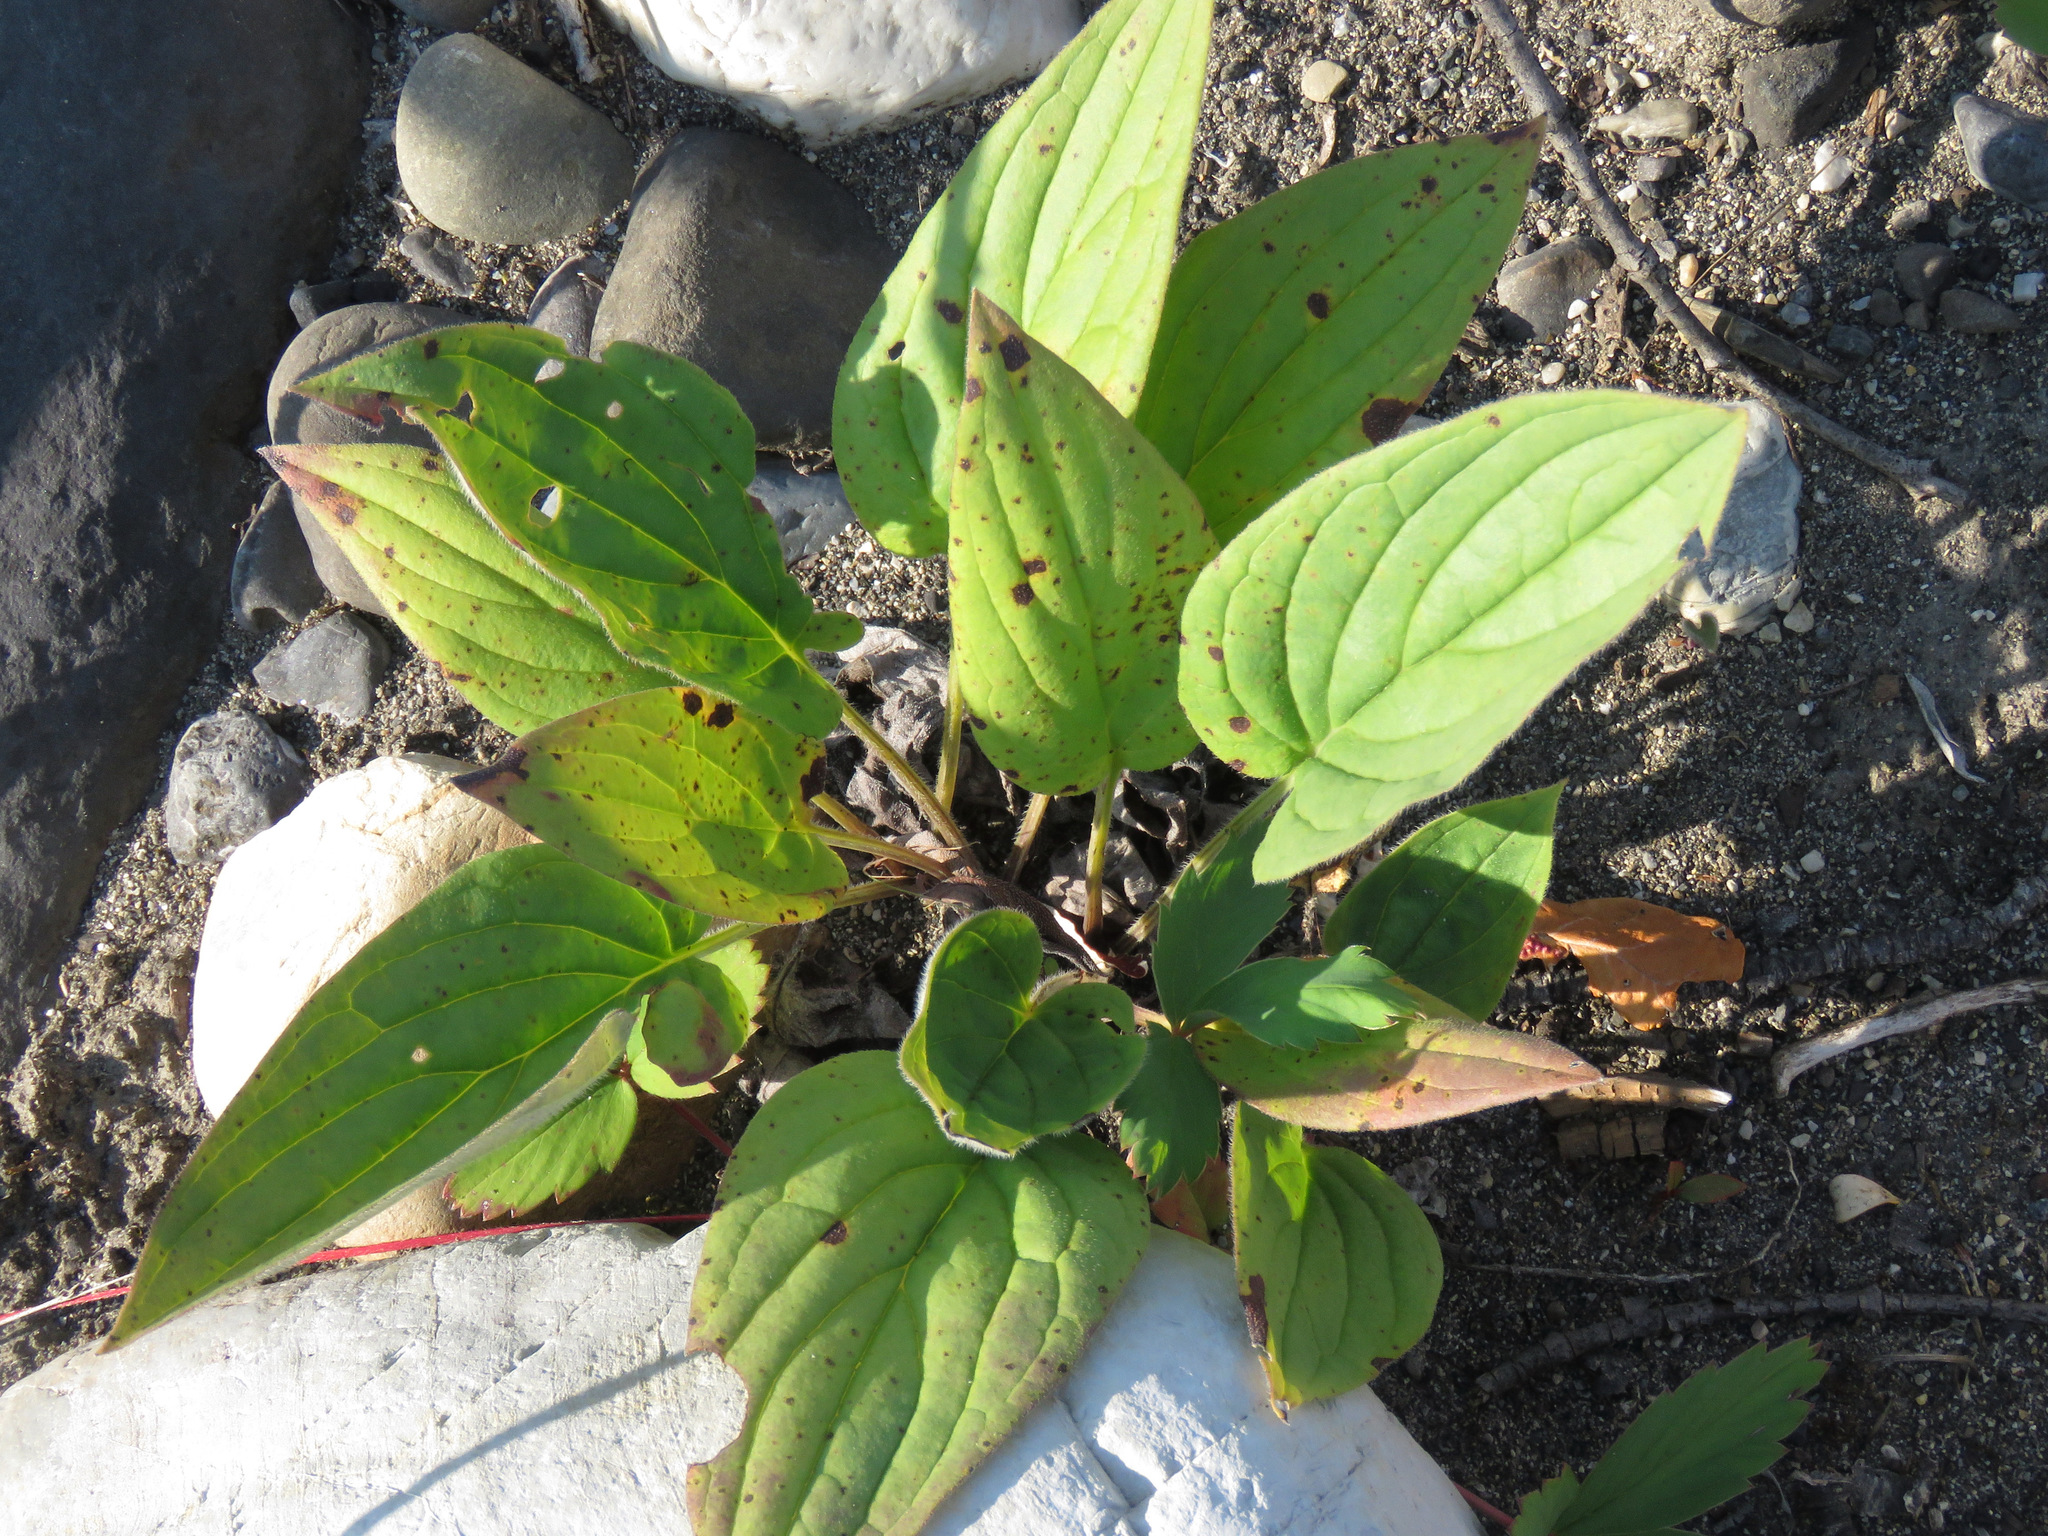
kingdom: Plantae
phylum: Tracheophyta
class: Magnoliopsida
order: Boraginales
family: Boraginaceae
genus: Mertensia
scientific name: Mertensia paniculata
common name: Panicled bluebells
